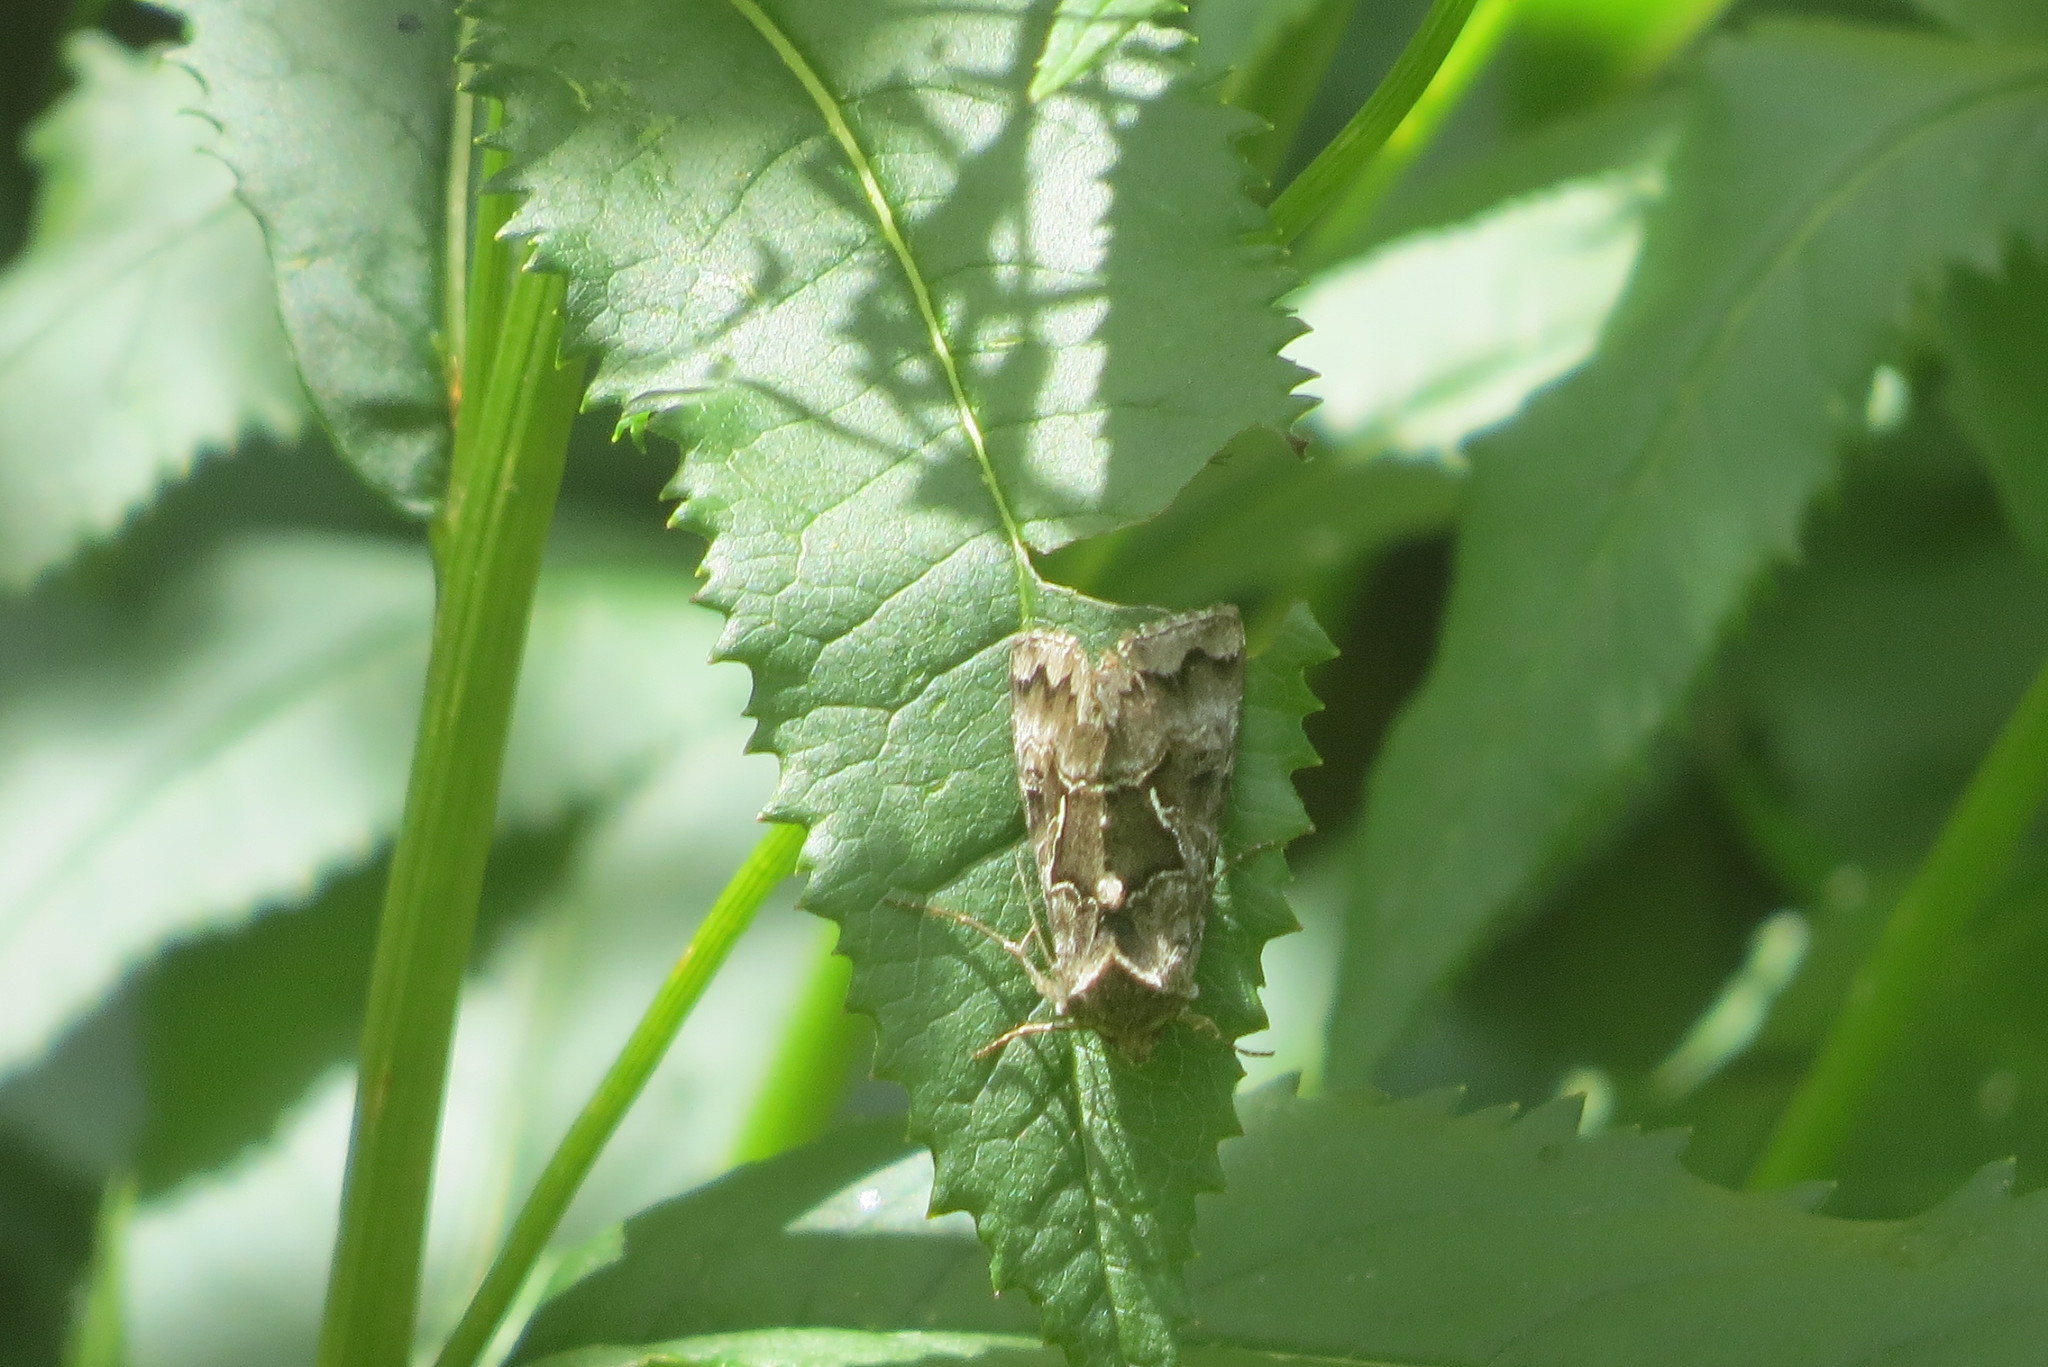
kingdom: Animalia
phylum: Arthropoda
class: Insecta
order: Lepidoptera
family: Noctuidae
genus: Syngrapha
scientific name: Syngrapha ain
